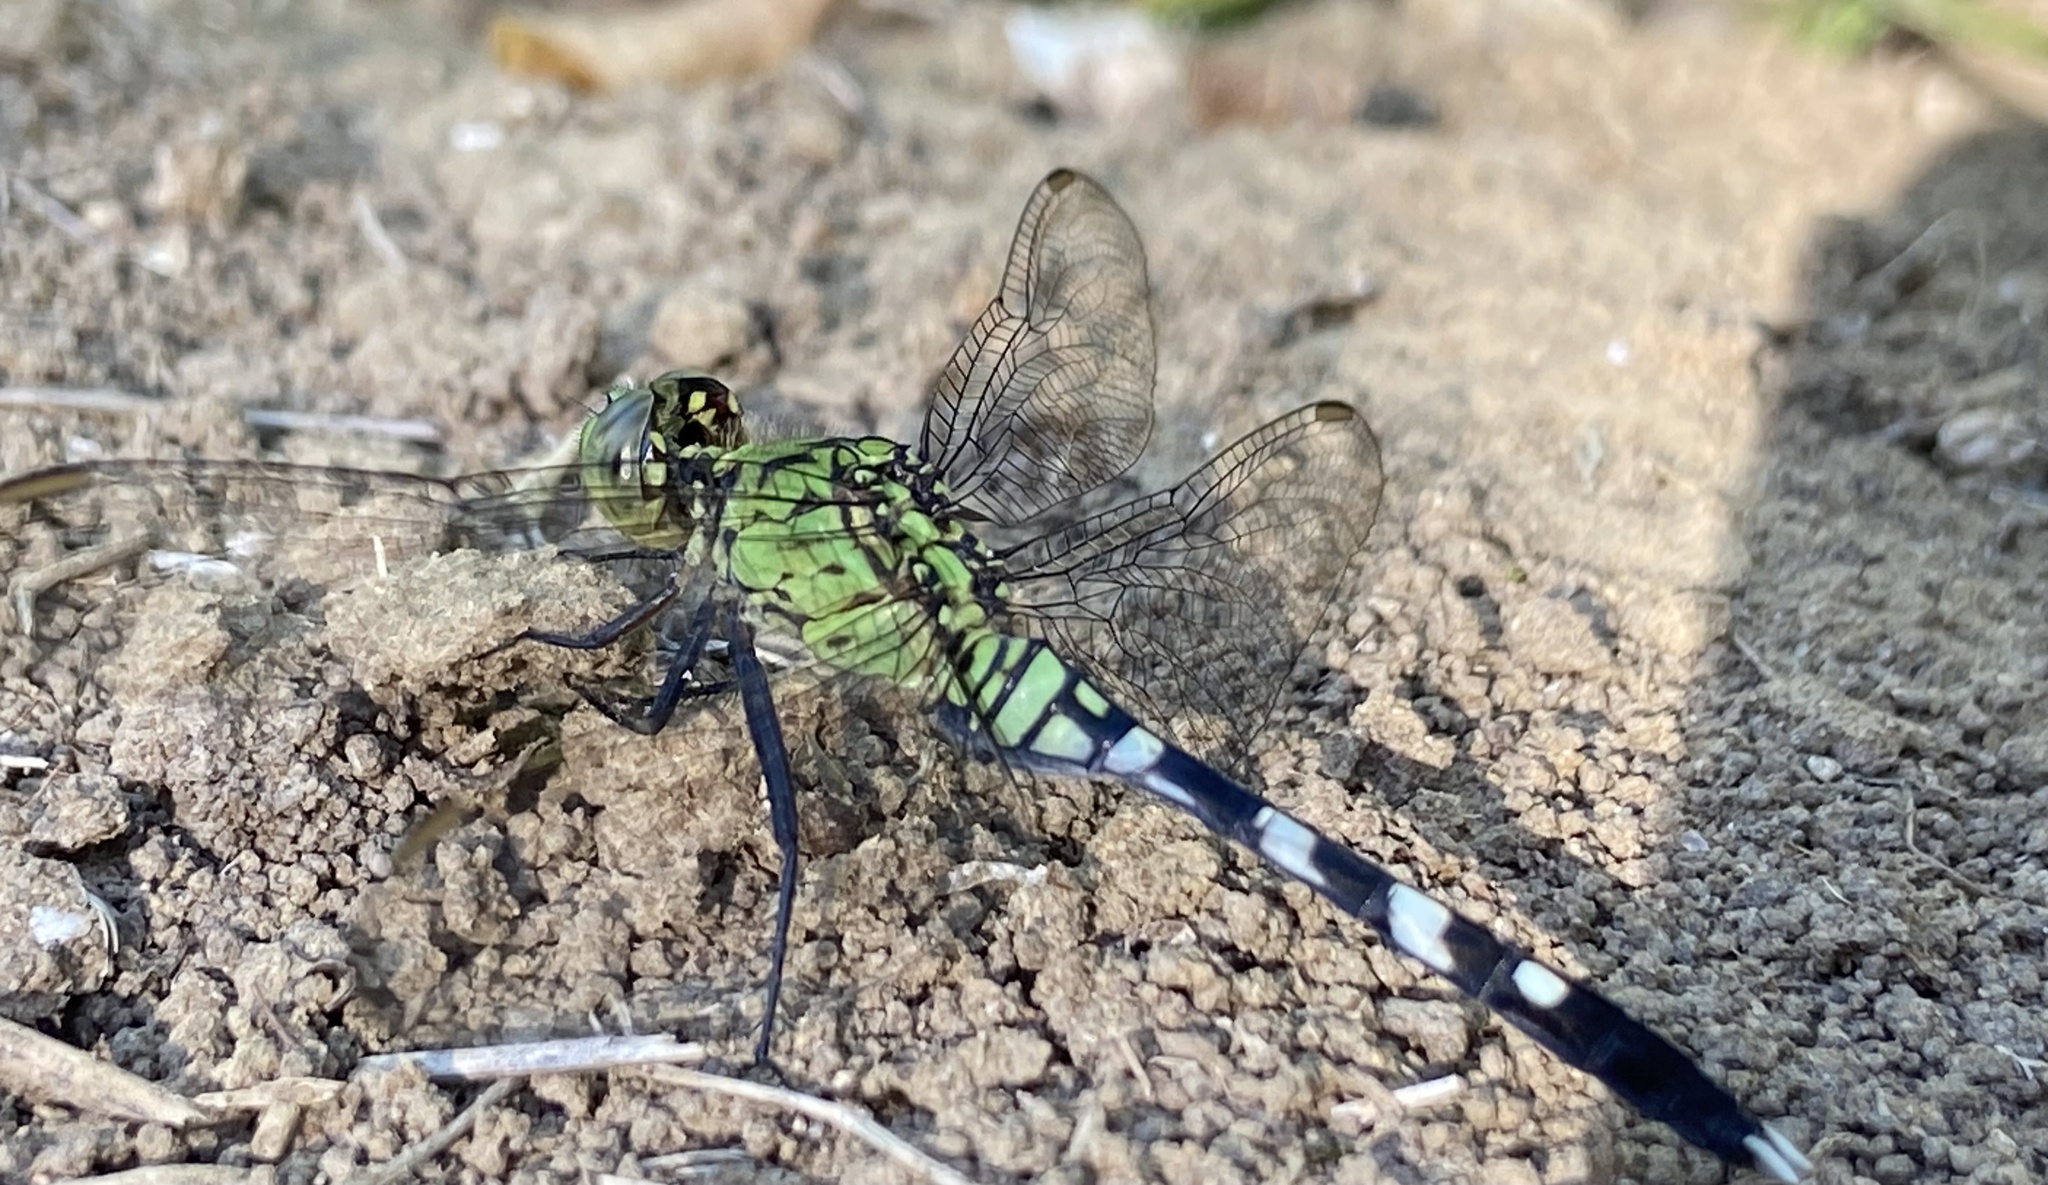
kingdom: Animalia
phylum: Arthropoda
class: Insecta
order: Odonata
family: Libellulidae
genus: Erythemis
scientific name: Erythemis simplicicollis
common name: Eastern pondhawk
